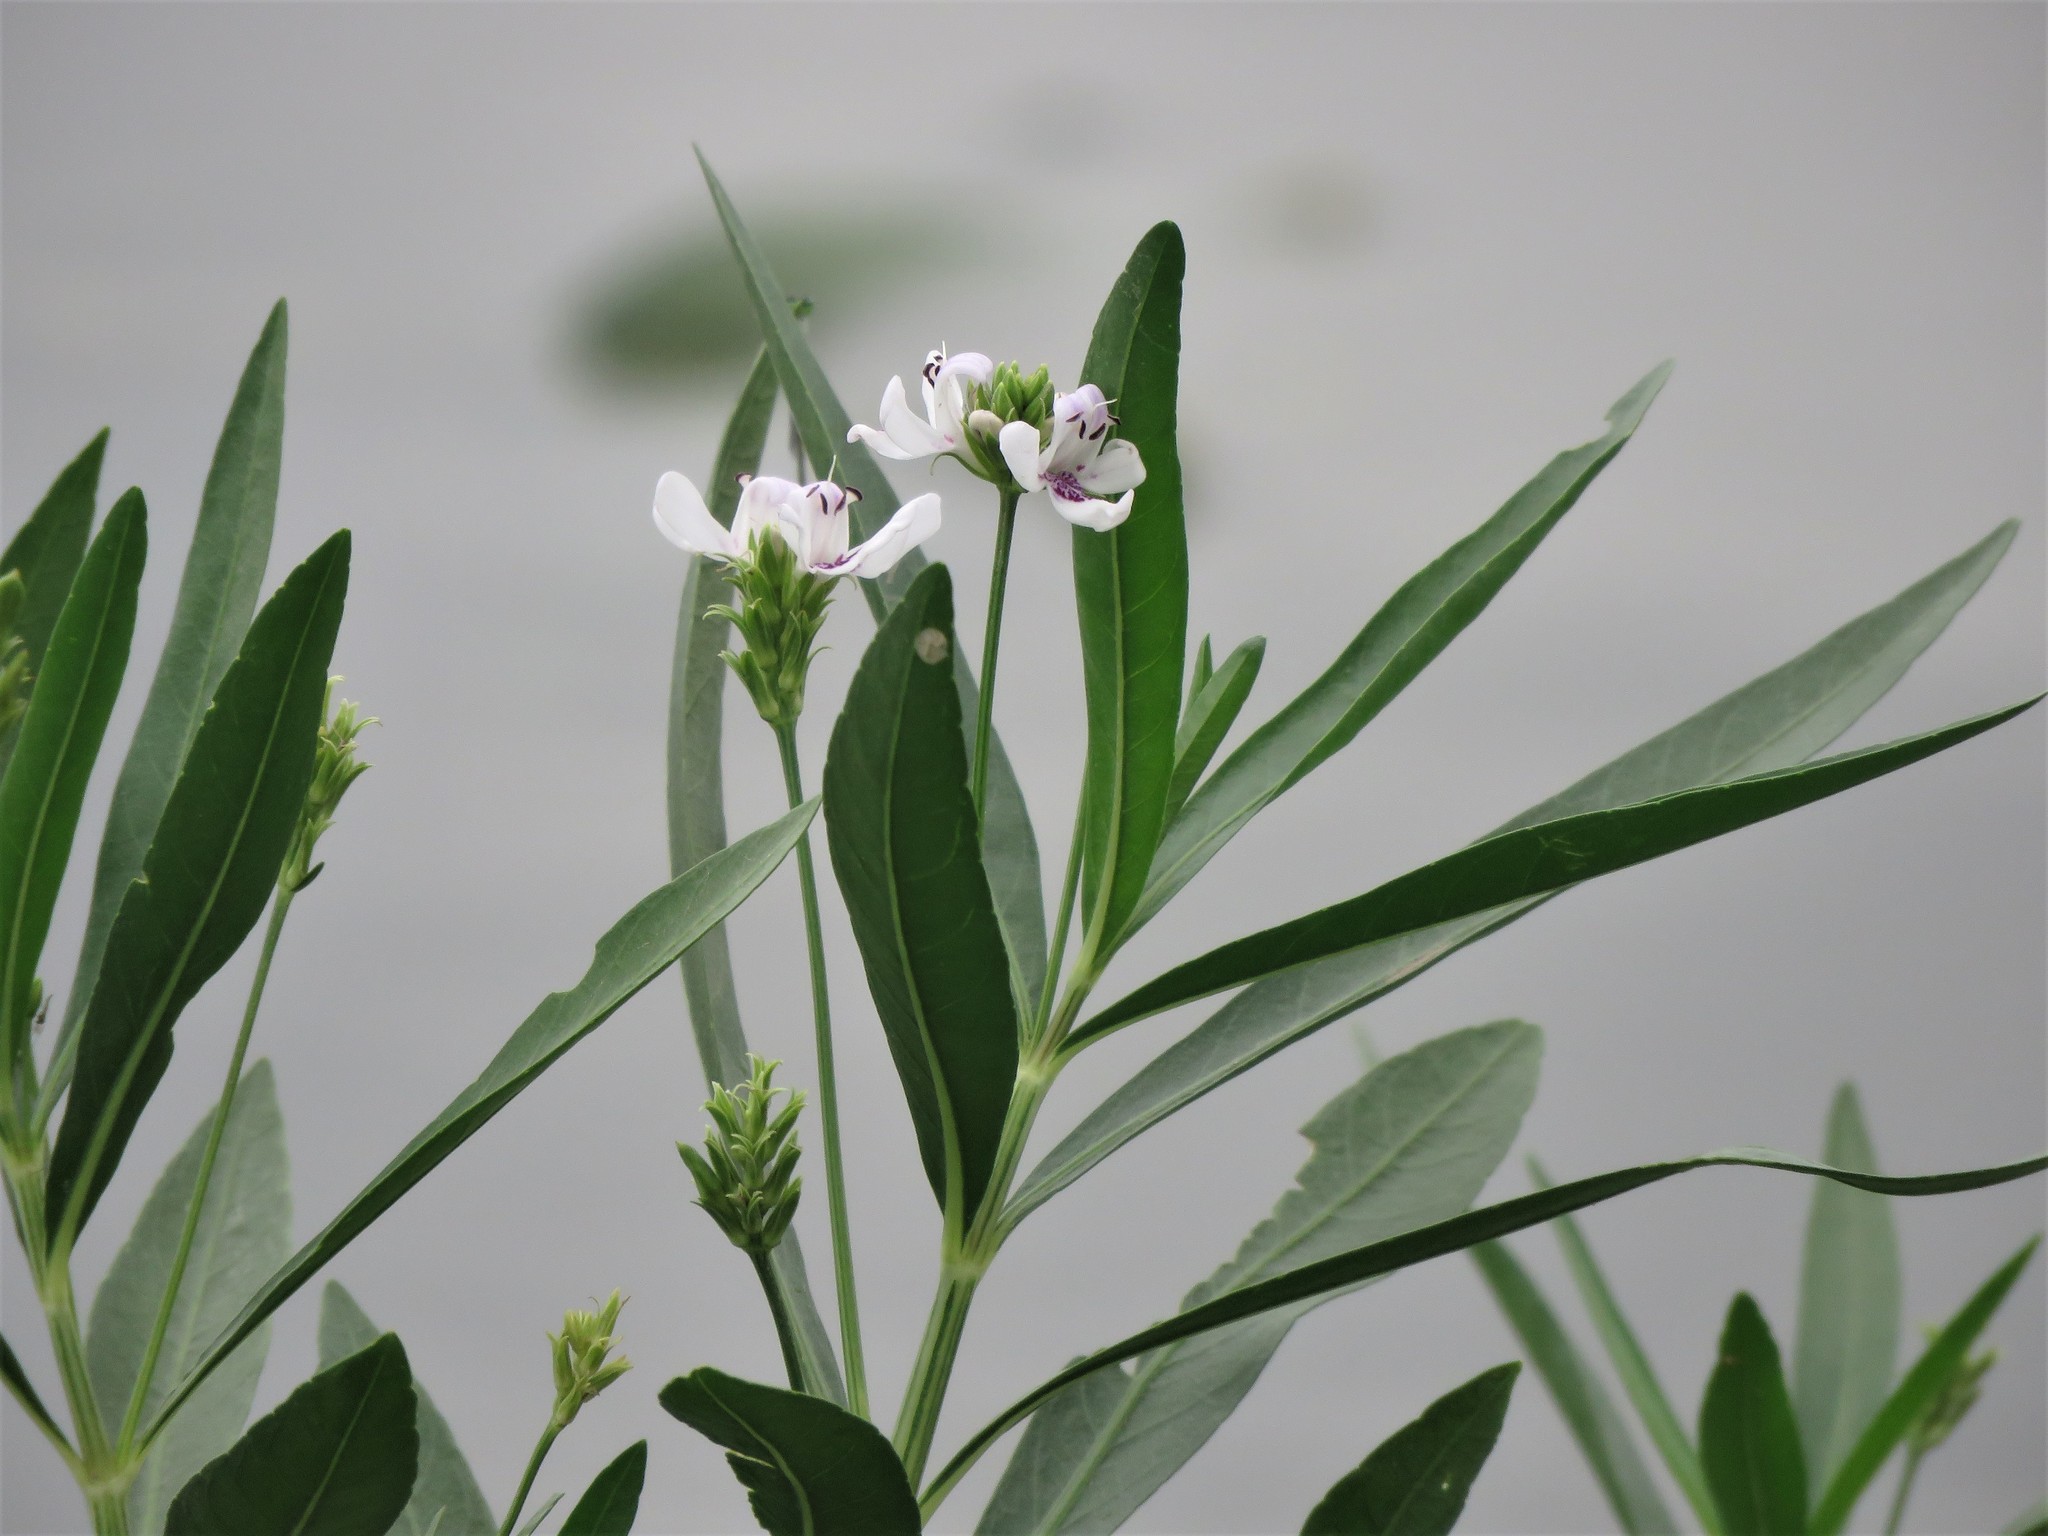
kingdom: Plantae
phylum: Tracheophyta
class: Magnoliopsida
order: Lamiales
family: Acanthaceae
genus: Dianthera
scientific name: Dianthera americana
